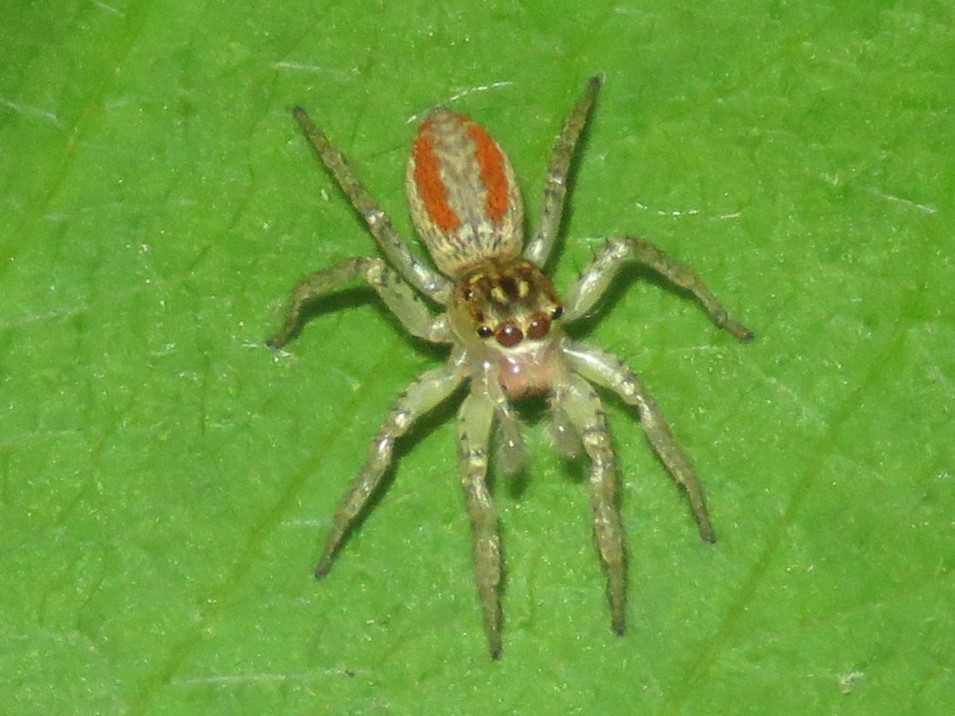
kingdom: Animalia
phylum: Arthropoda
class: Arachnida
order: Araneae
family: Salticidae
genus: Maevia
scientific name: Maevia inclemens
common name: Dimorphic jumper
